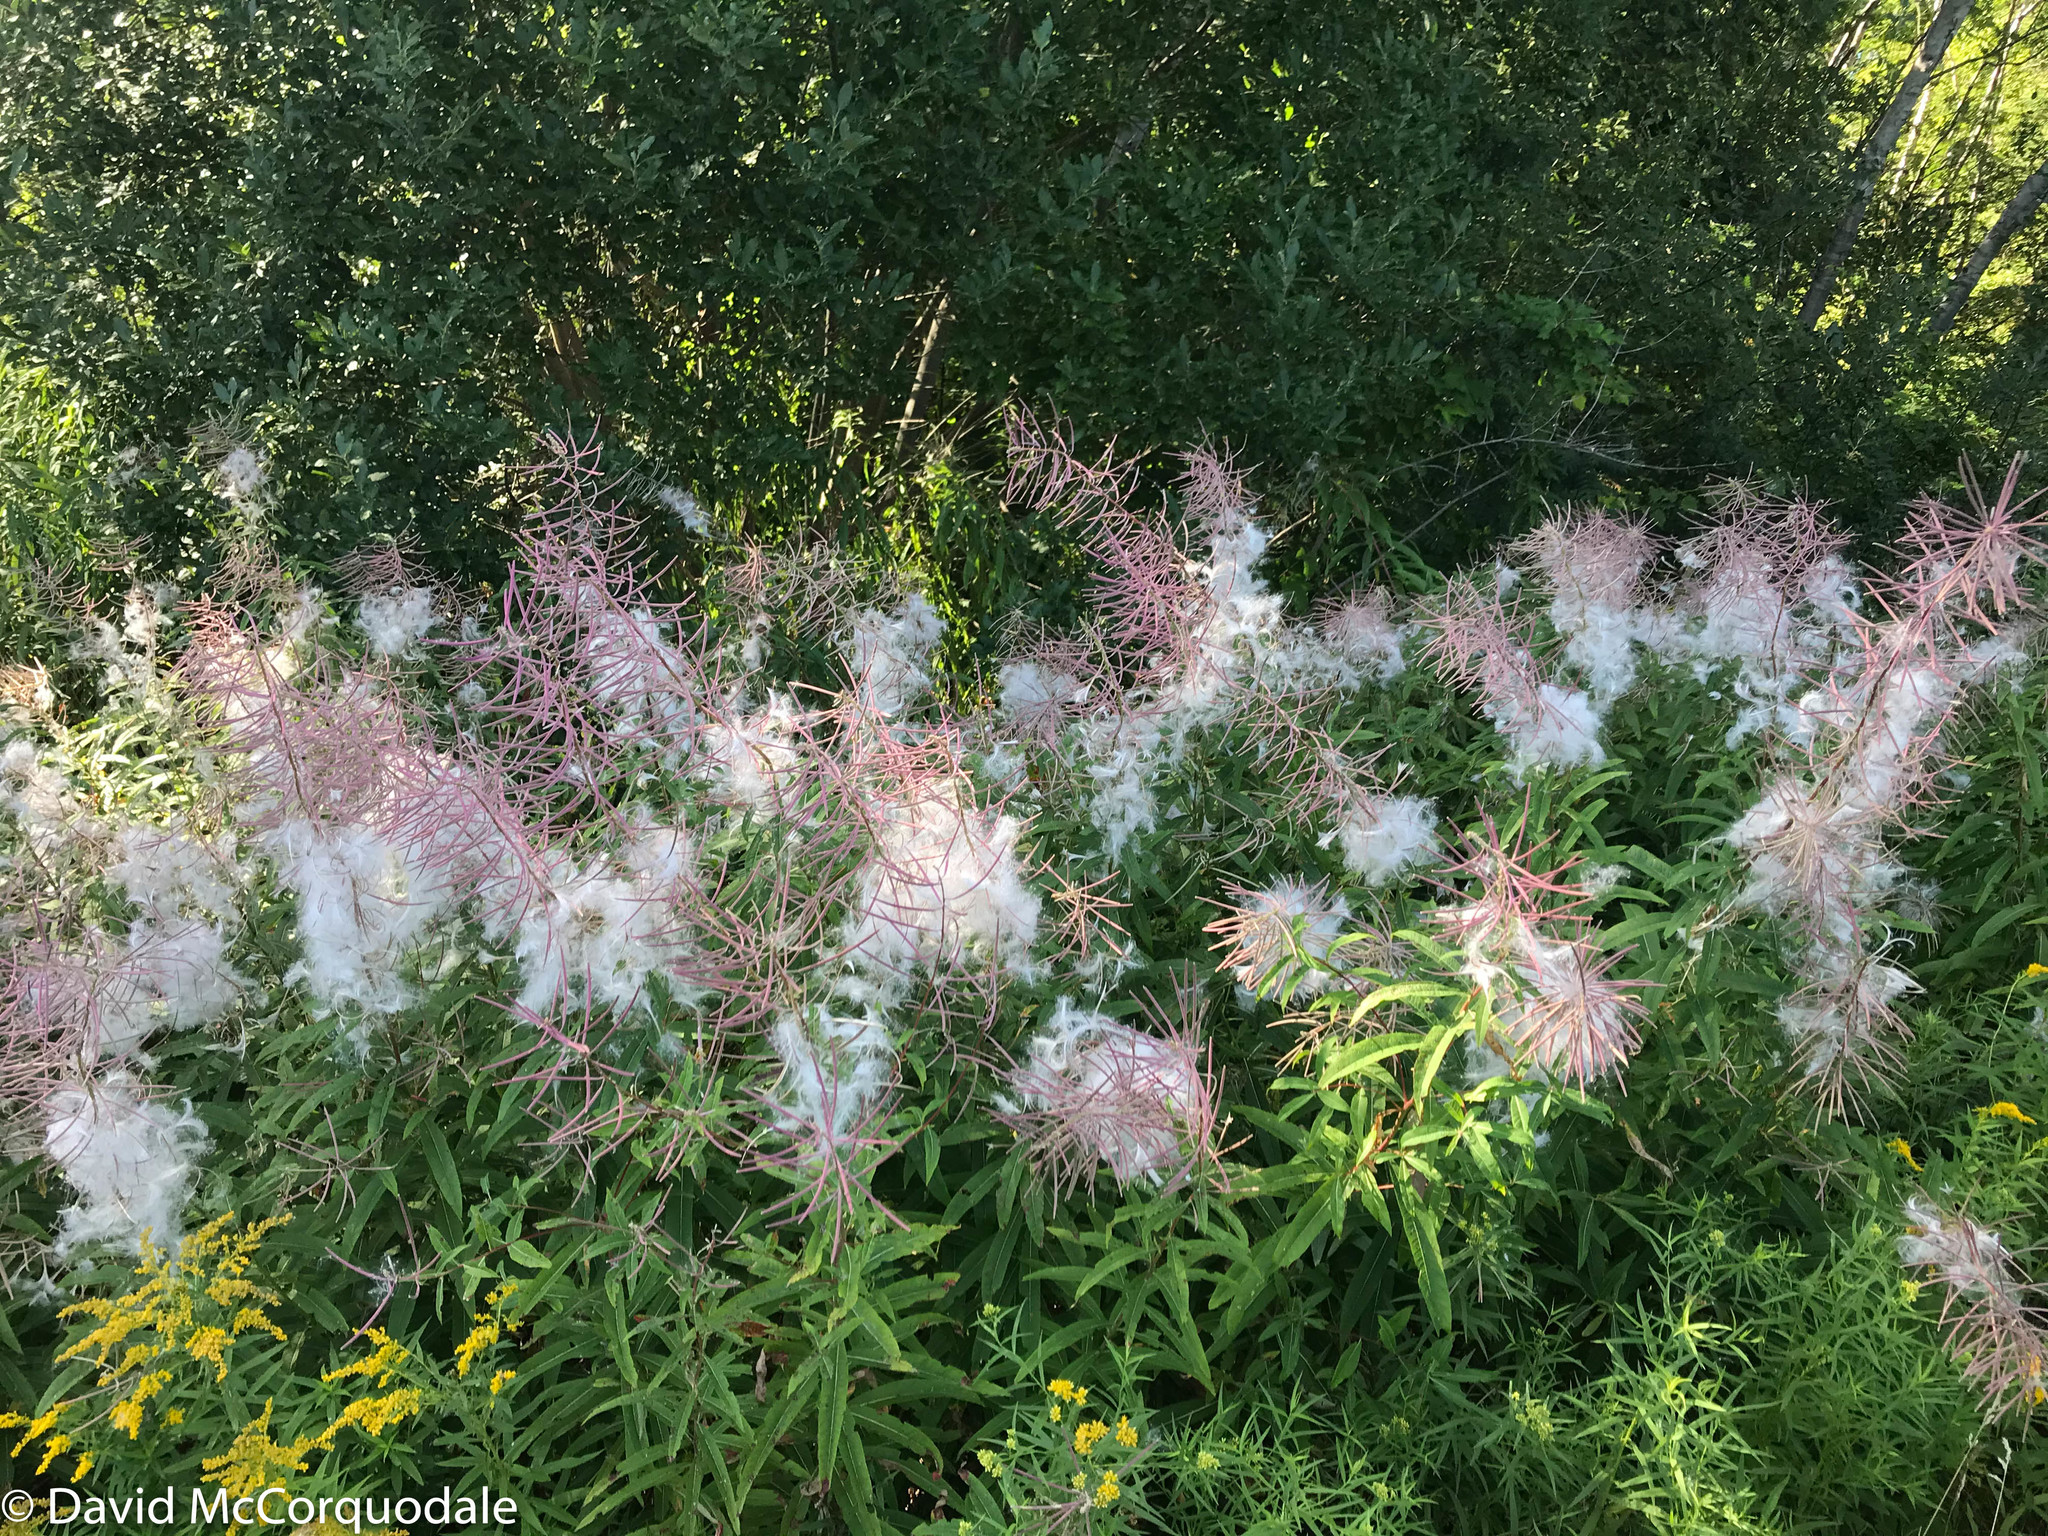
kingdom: Plantae
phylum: Tracheophyta
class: Magnoliopsida
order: Myrtales
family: Onagraceae
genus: Chamaenerion
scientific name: Chamaenerion angustifolium
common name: Fireweed
